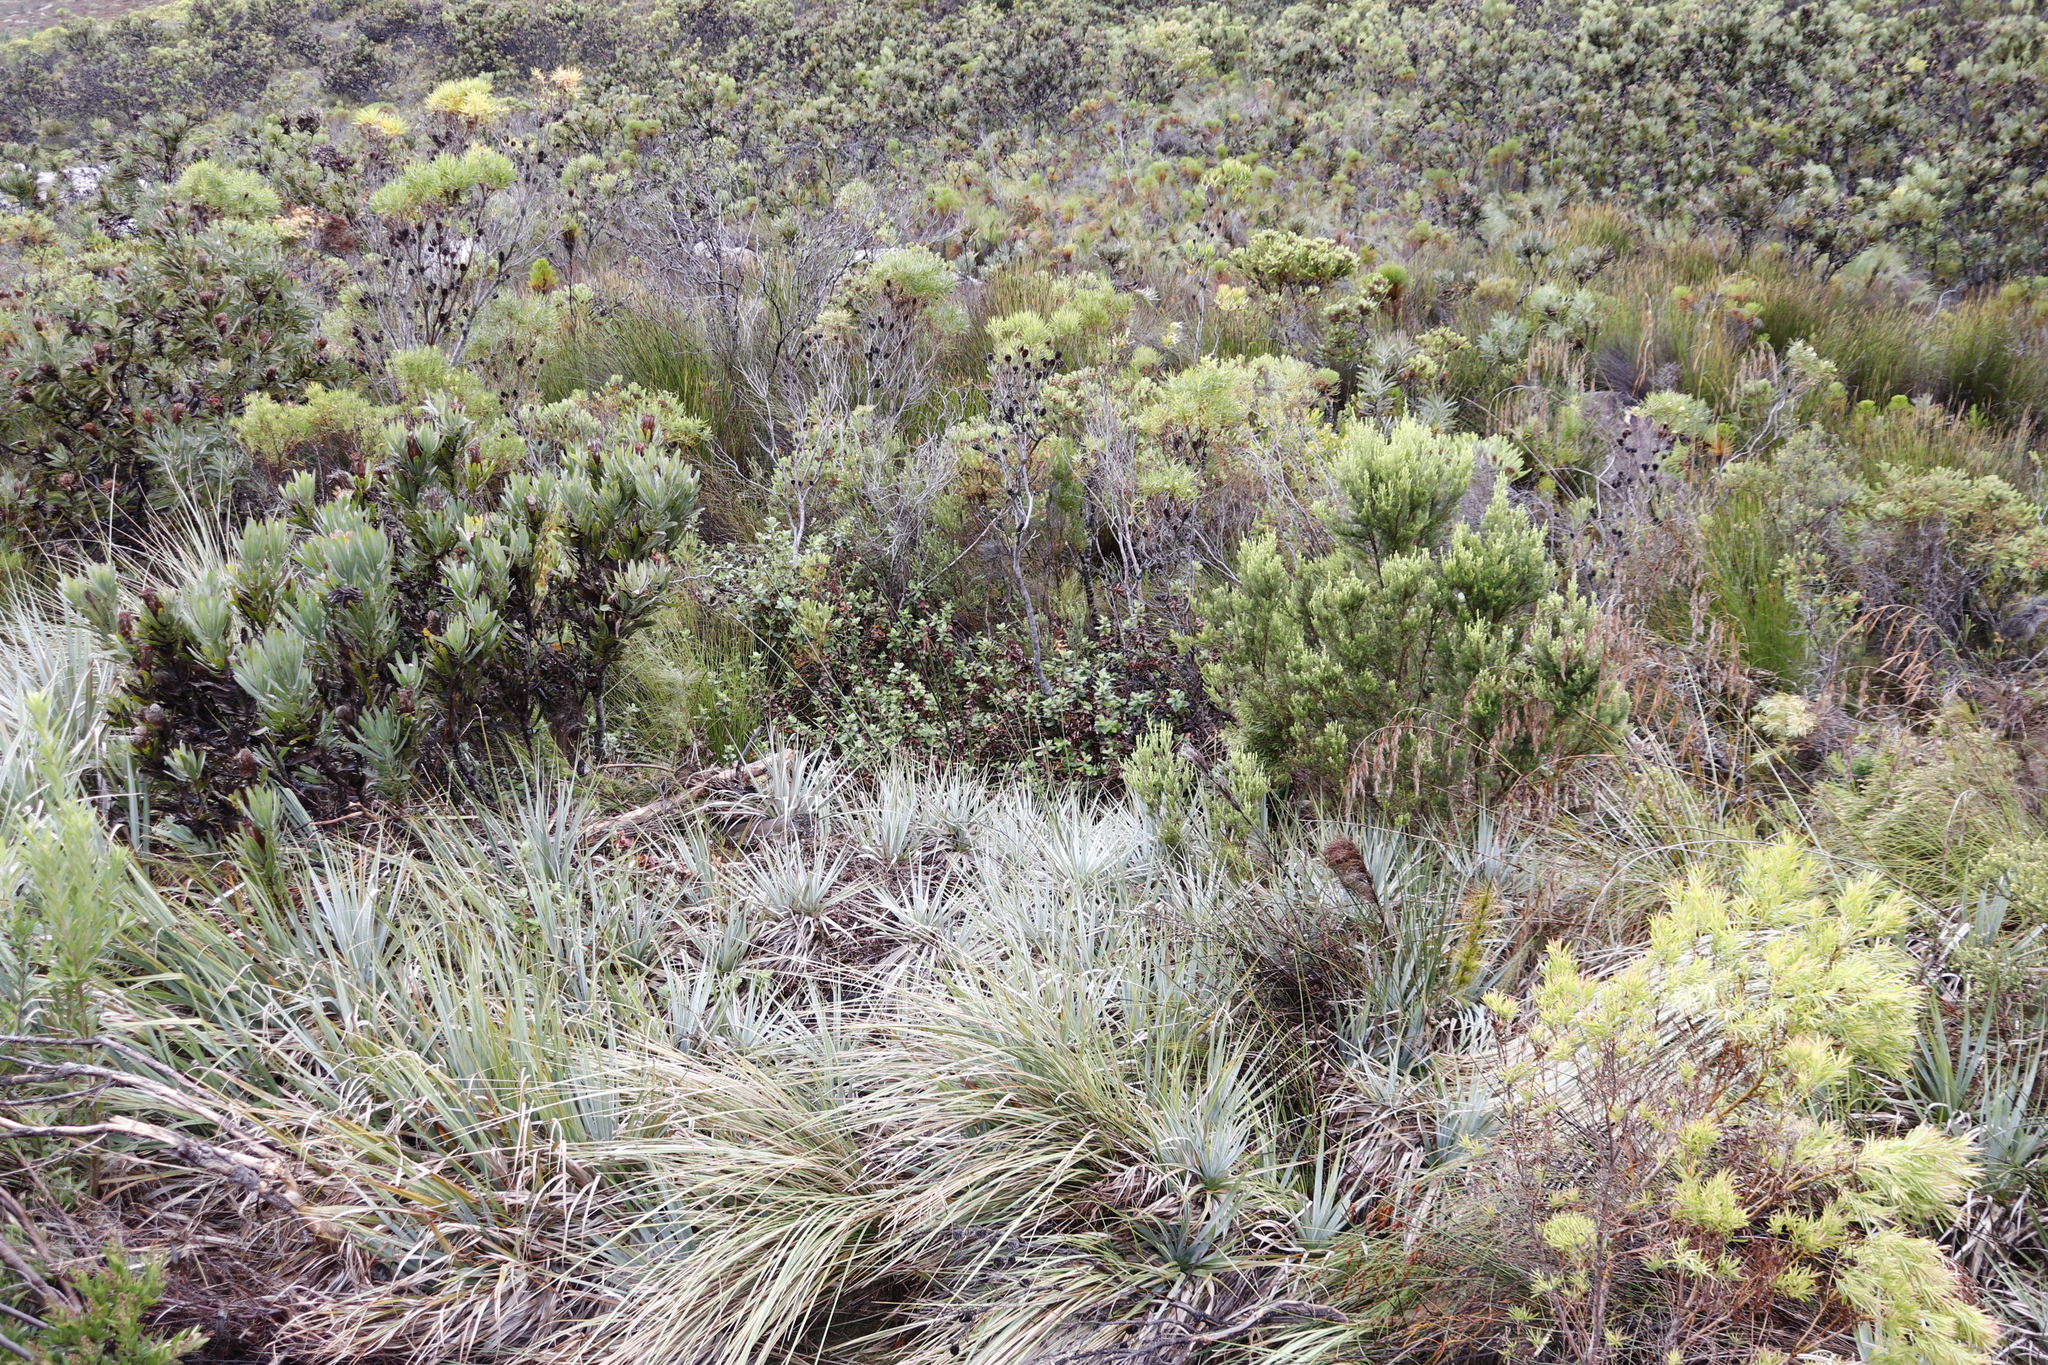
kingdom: Plantae
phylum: Tracheophyta
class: Magnoliopsida
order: Rosales
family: Rosaceae
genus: Cliffortia
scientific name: Cliffortia hirsuta
